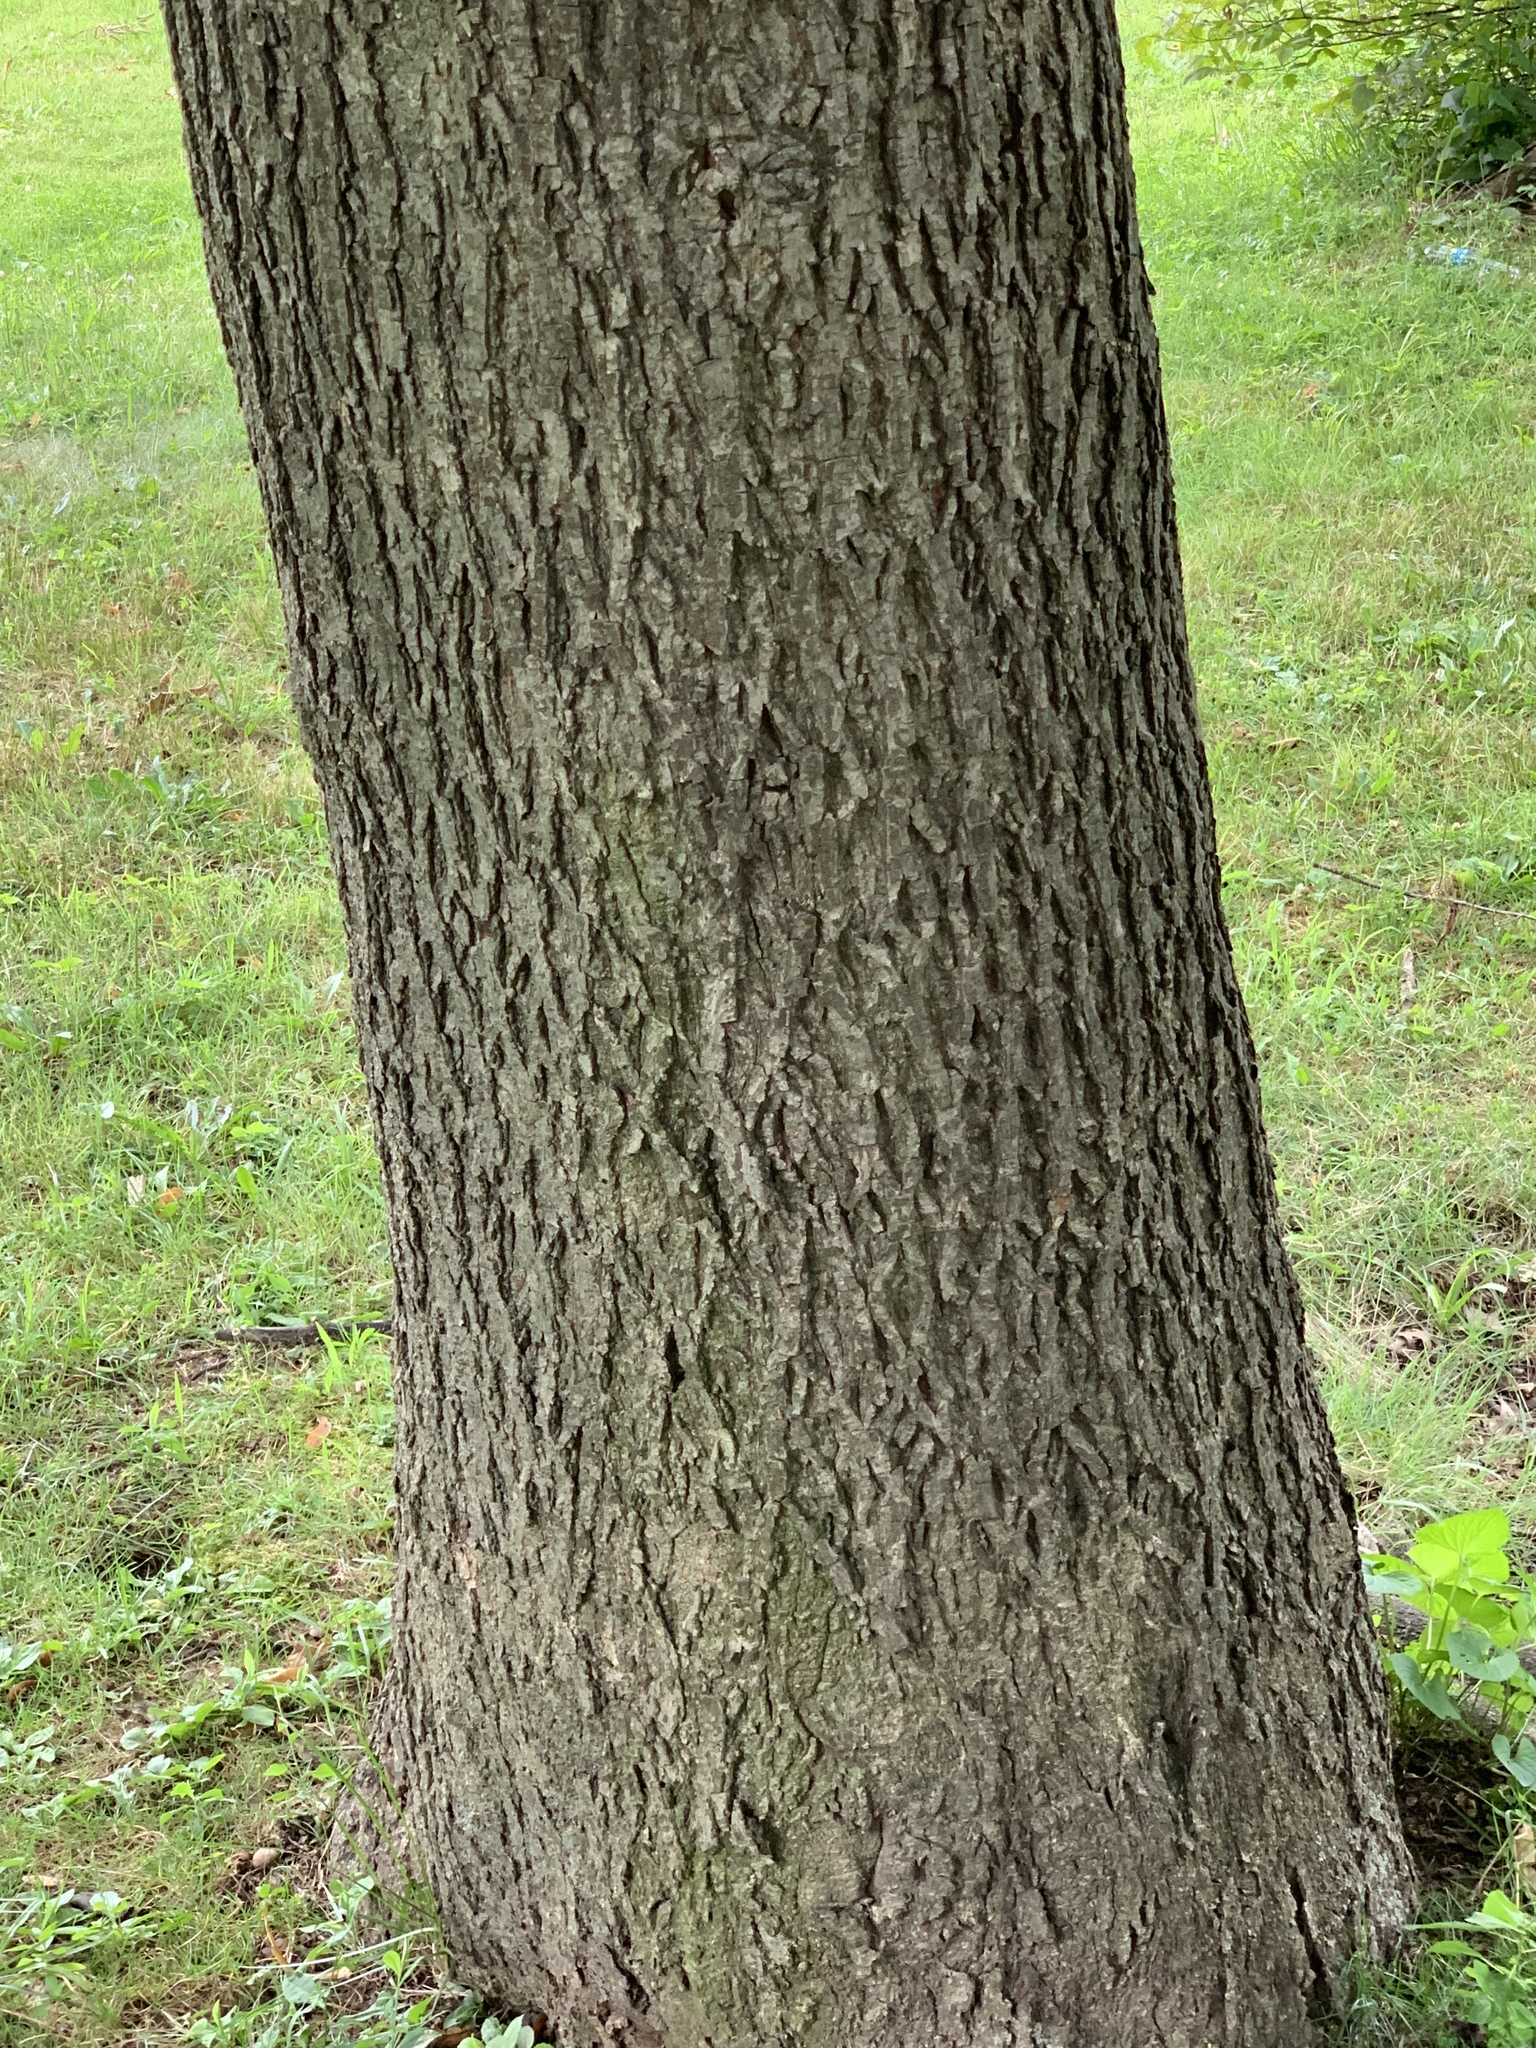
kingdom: Plantae
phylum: Tracheophyta
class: Magnoliopsida
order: Fagales
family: Juglandaceae
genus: Carya
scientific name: Carya cordiformis
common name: Bitternut hickory
